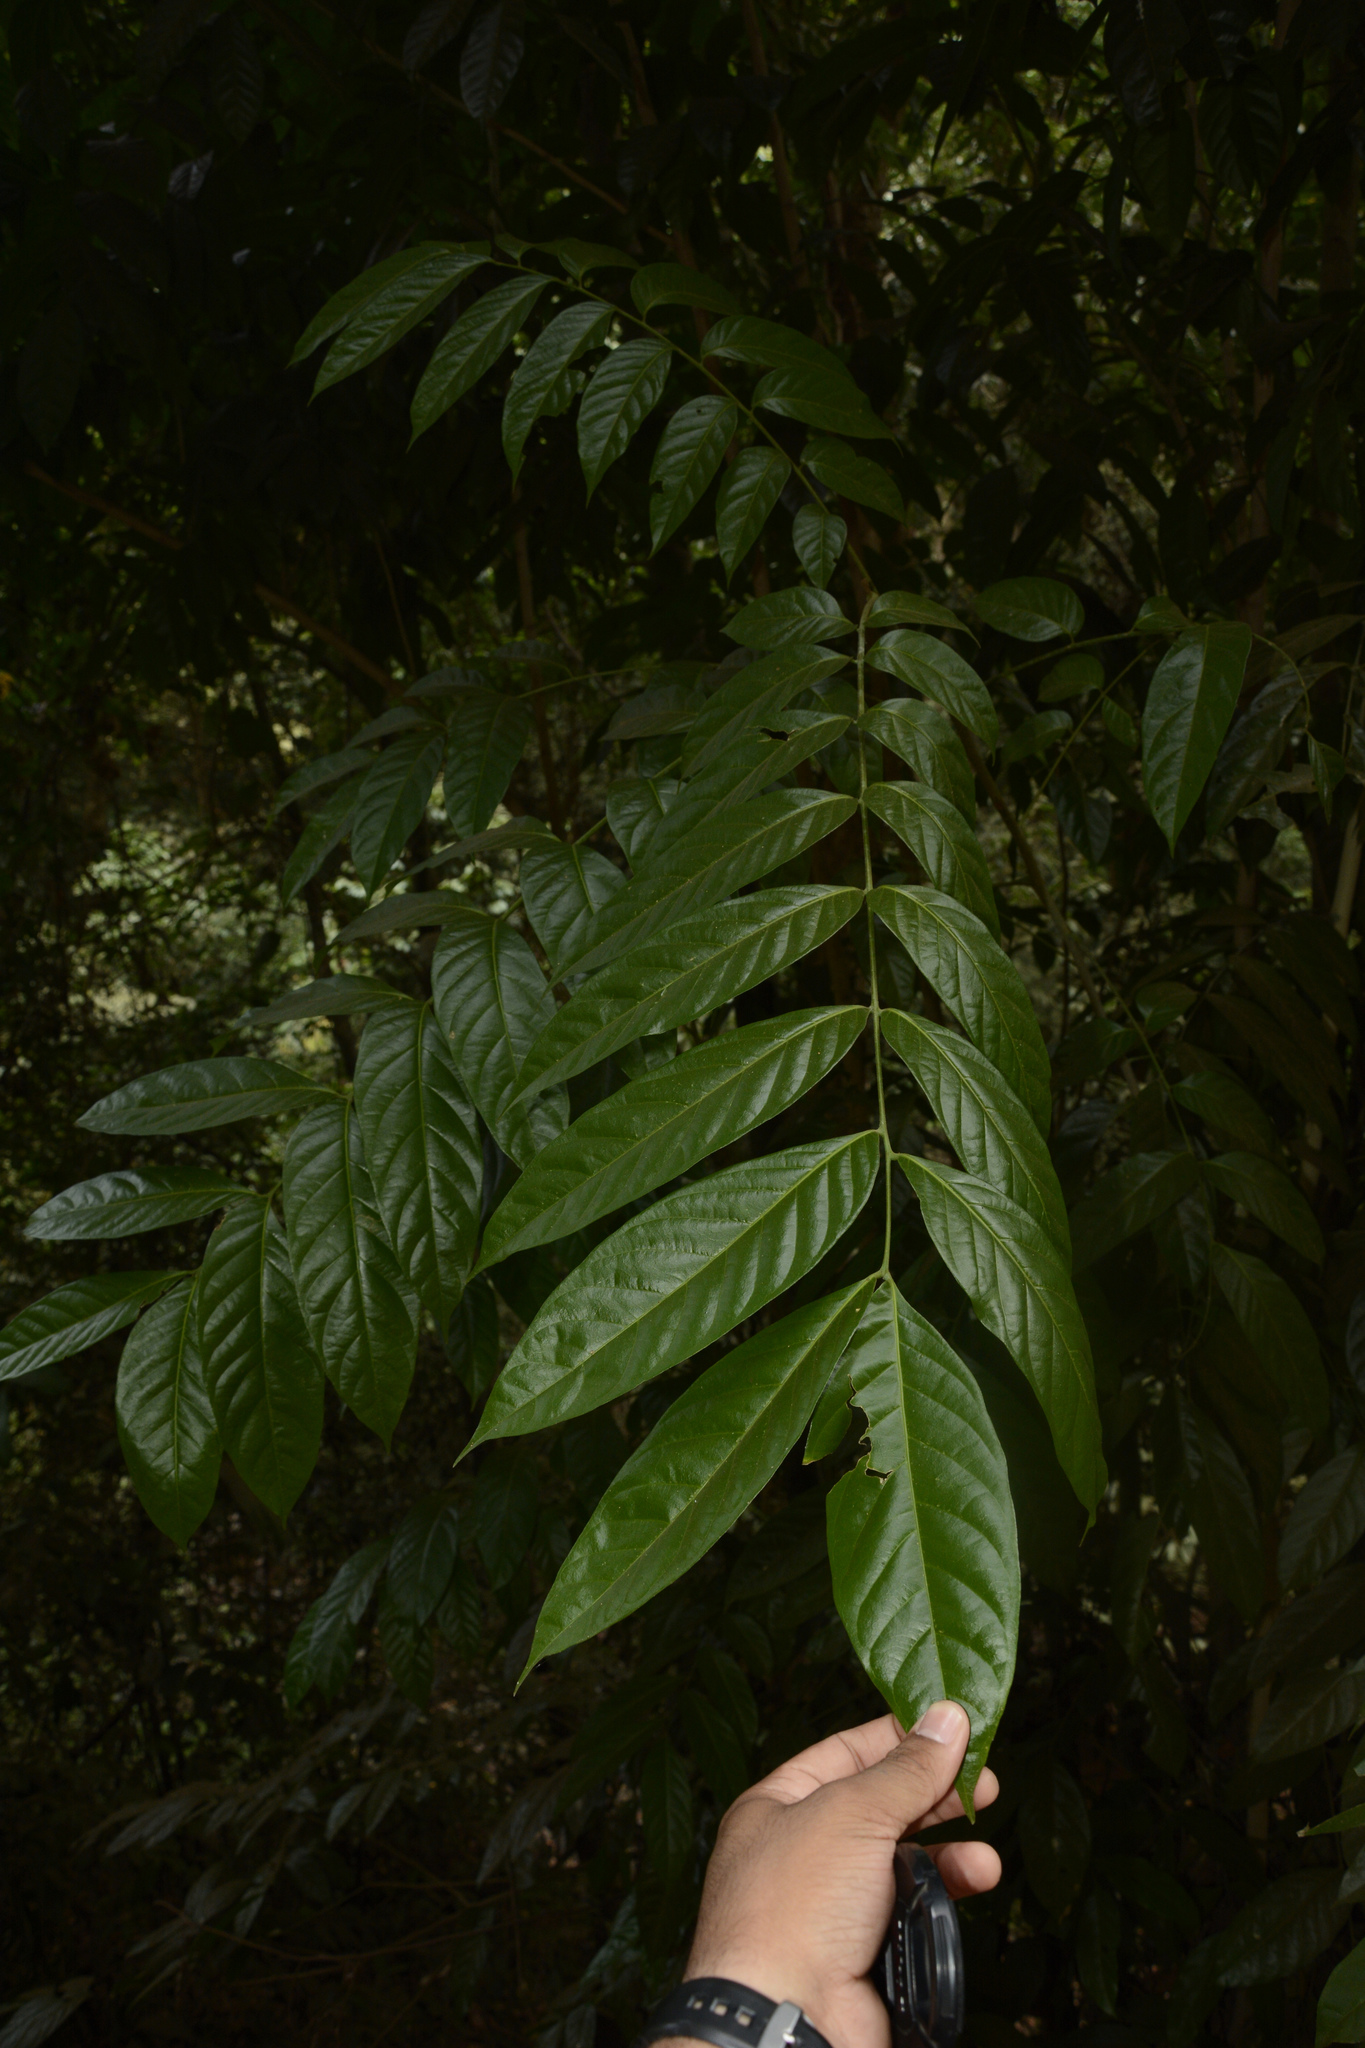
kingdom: Plantae
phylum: Tracheophyta
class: Magnoliopsida
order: Sapindales
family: Sapindaceae
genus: Harpullia
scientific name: Harpullia arborea
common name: Tulip-wood tree
